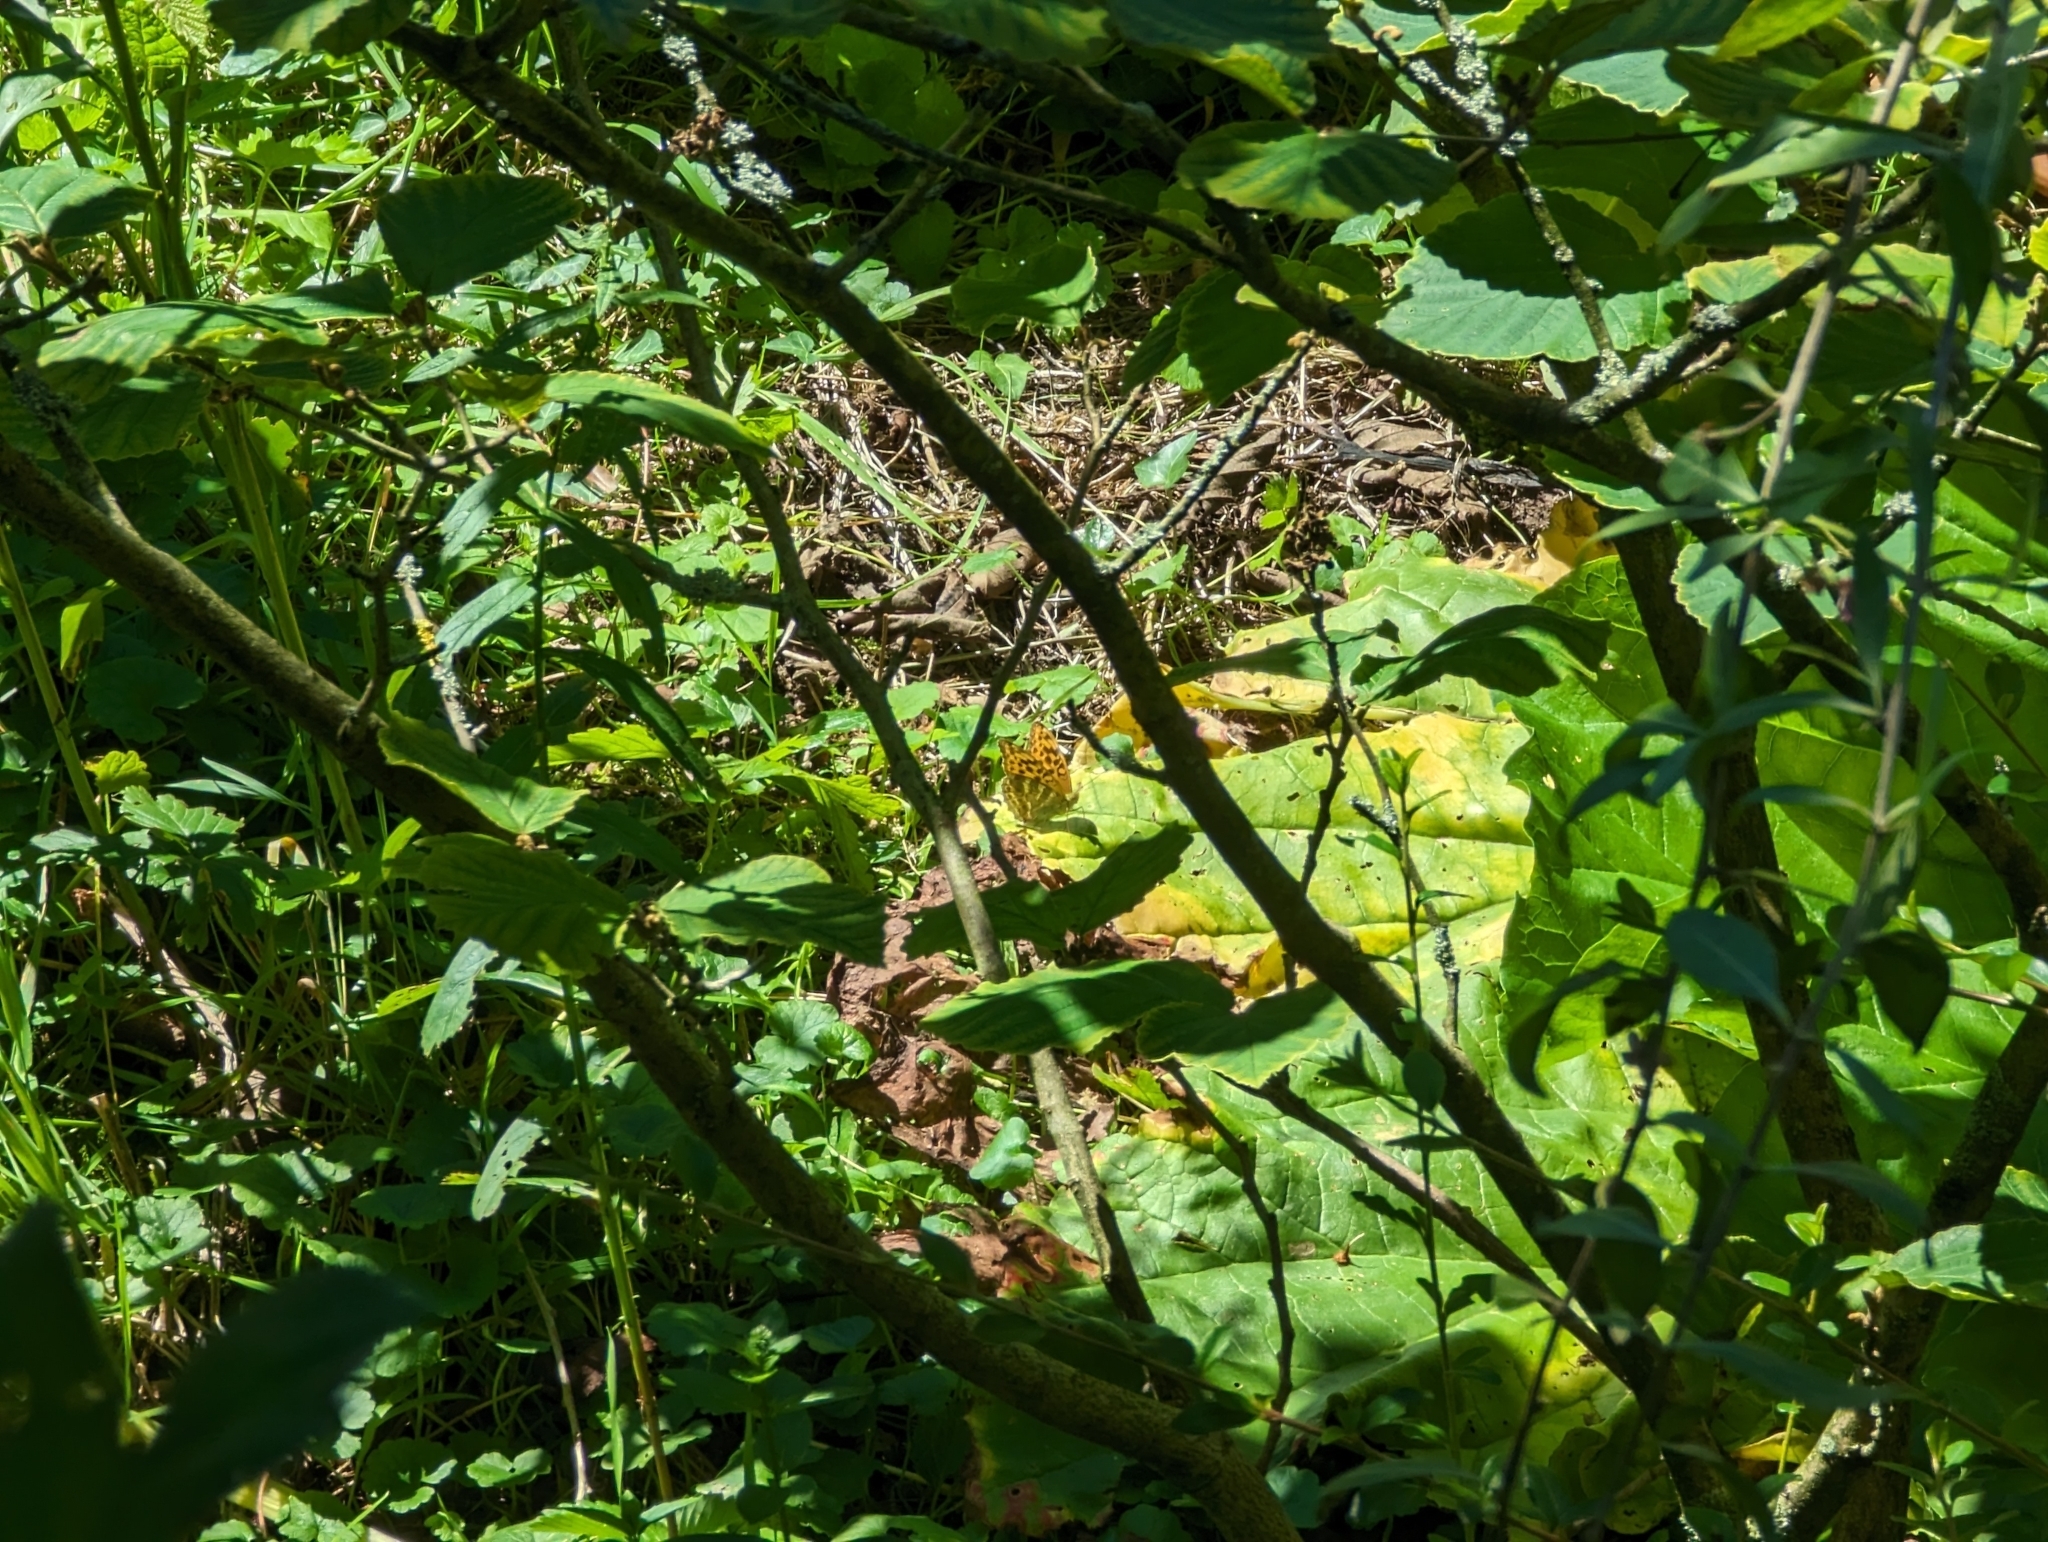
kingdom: Animalia
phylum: Arthropoda
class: Insecta
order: Lepidoptera
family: Nymphalidae
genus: Argynnis
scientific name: Argynnis paphia
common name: Silver-washed fritillary
